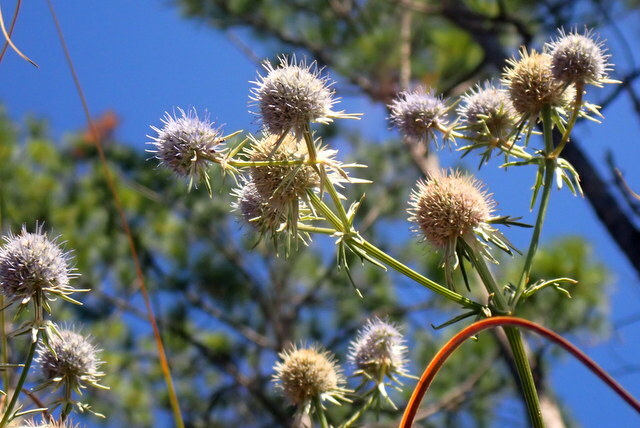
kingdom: Plantae
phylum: Tracheophyta
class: Magnoliopsida
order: Apiales
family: Apiaceae
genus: Eryngium
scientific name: Eryngium aquaticum
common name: Water eryngo
